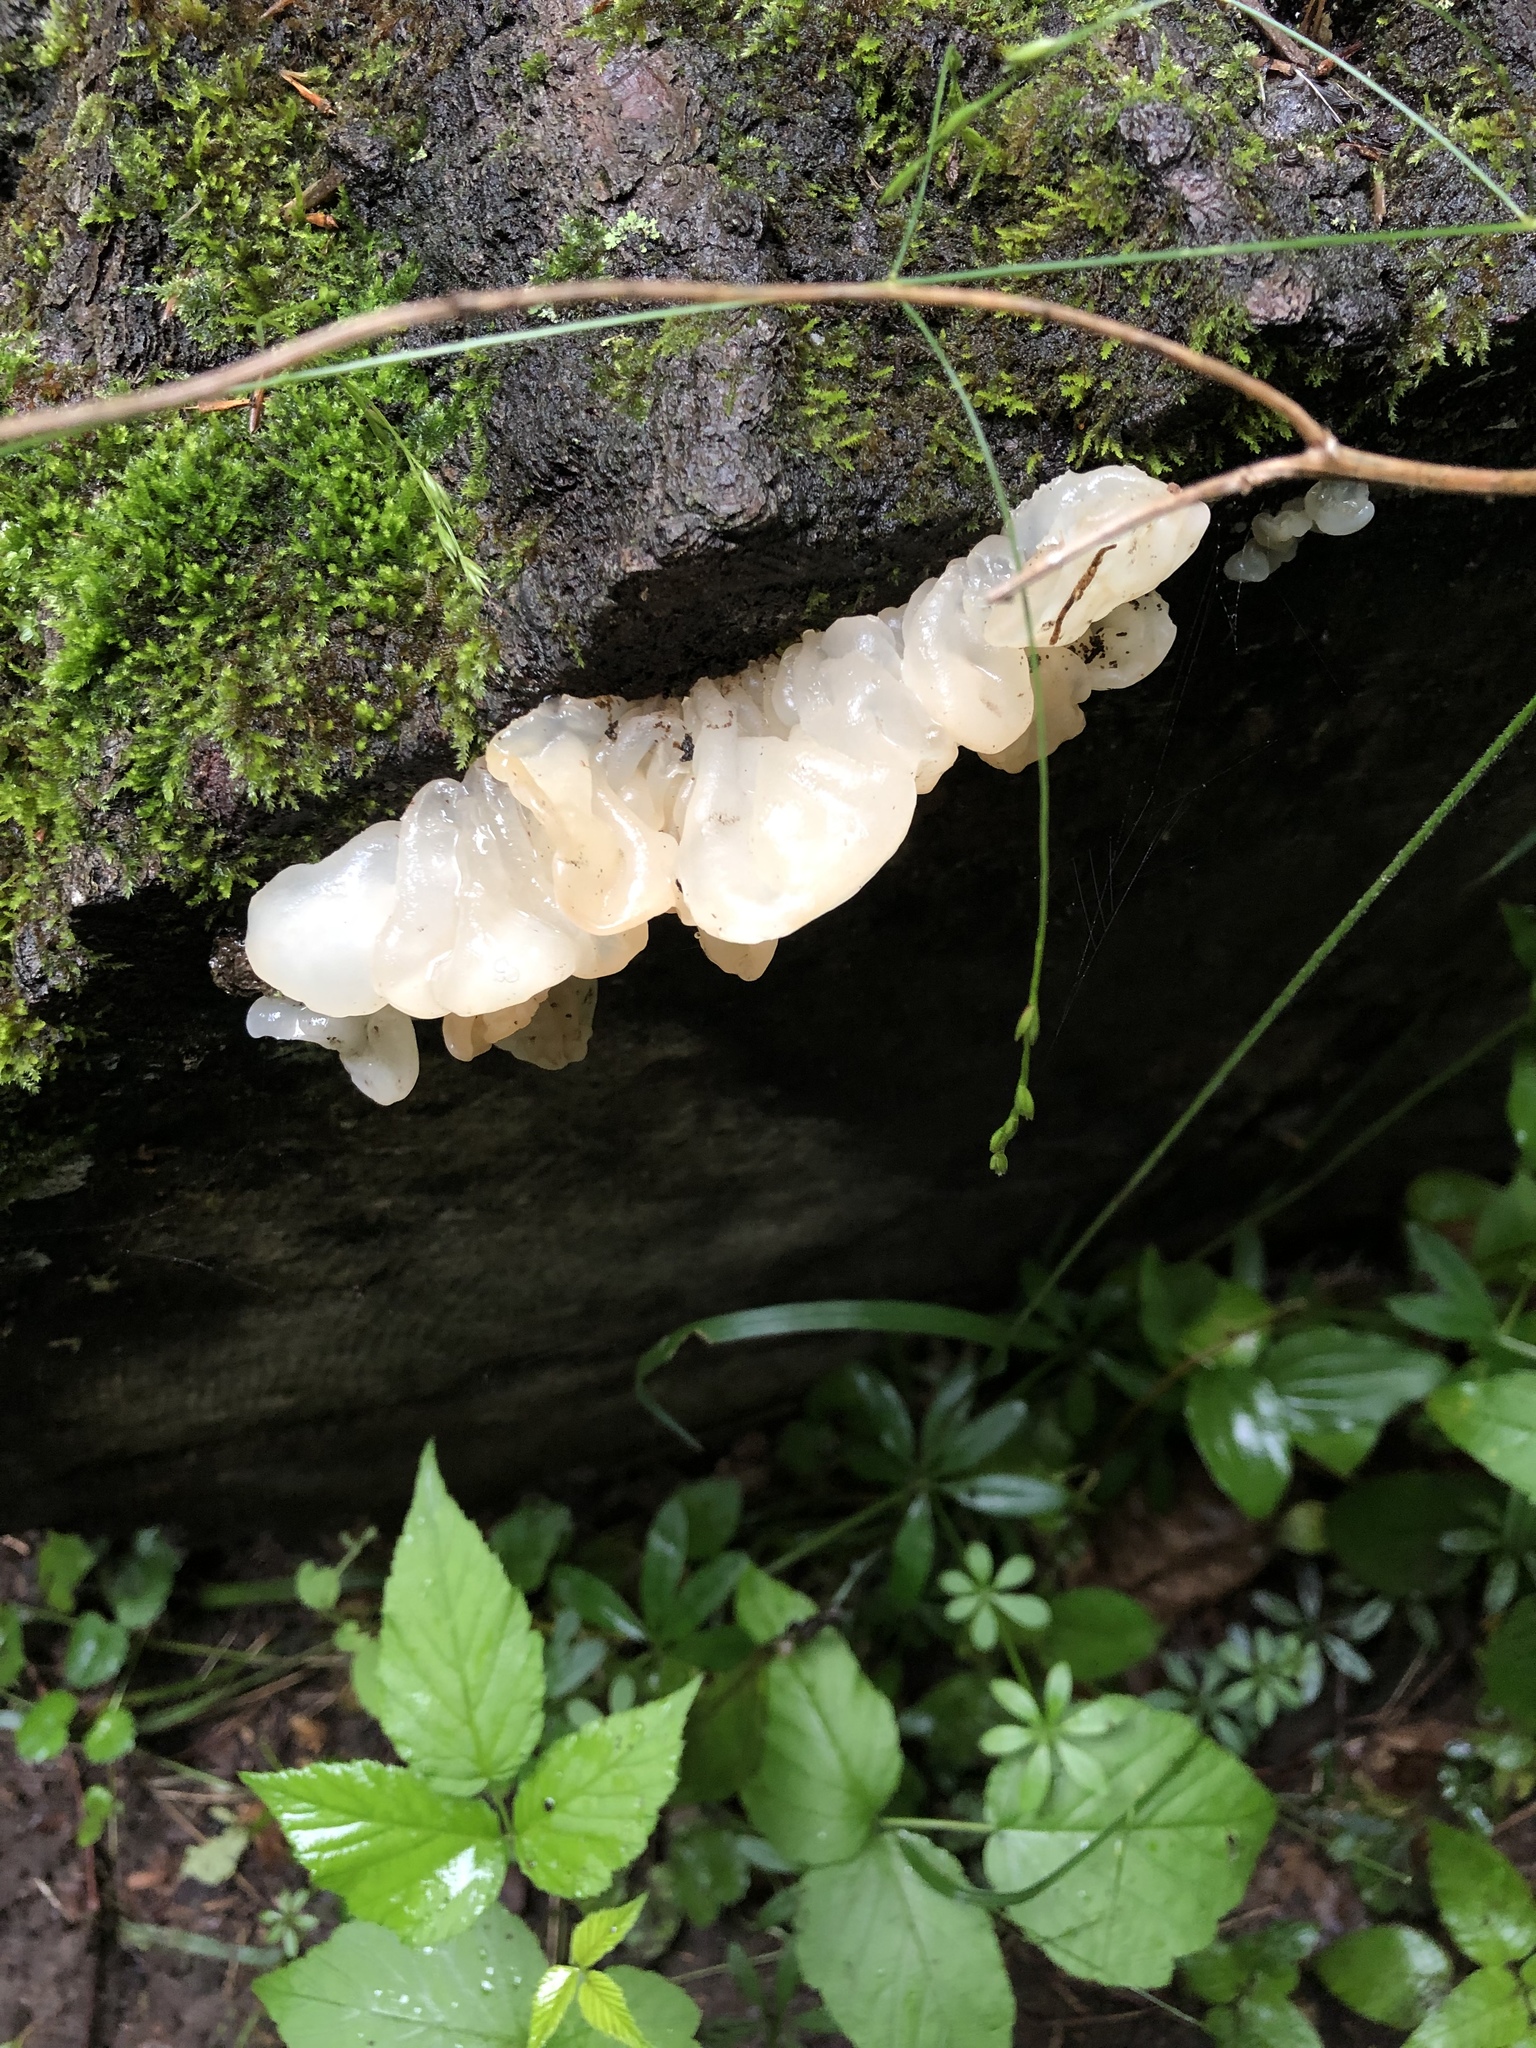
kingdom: Fungi
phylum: Basidiomycota
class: Agaricomycetes
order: Auriculariales
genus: Ductifera
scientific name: Ductifera pululahuana
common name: White jelly fungus
